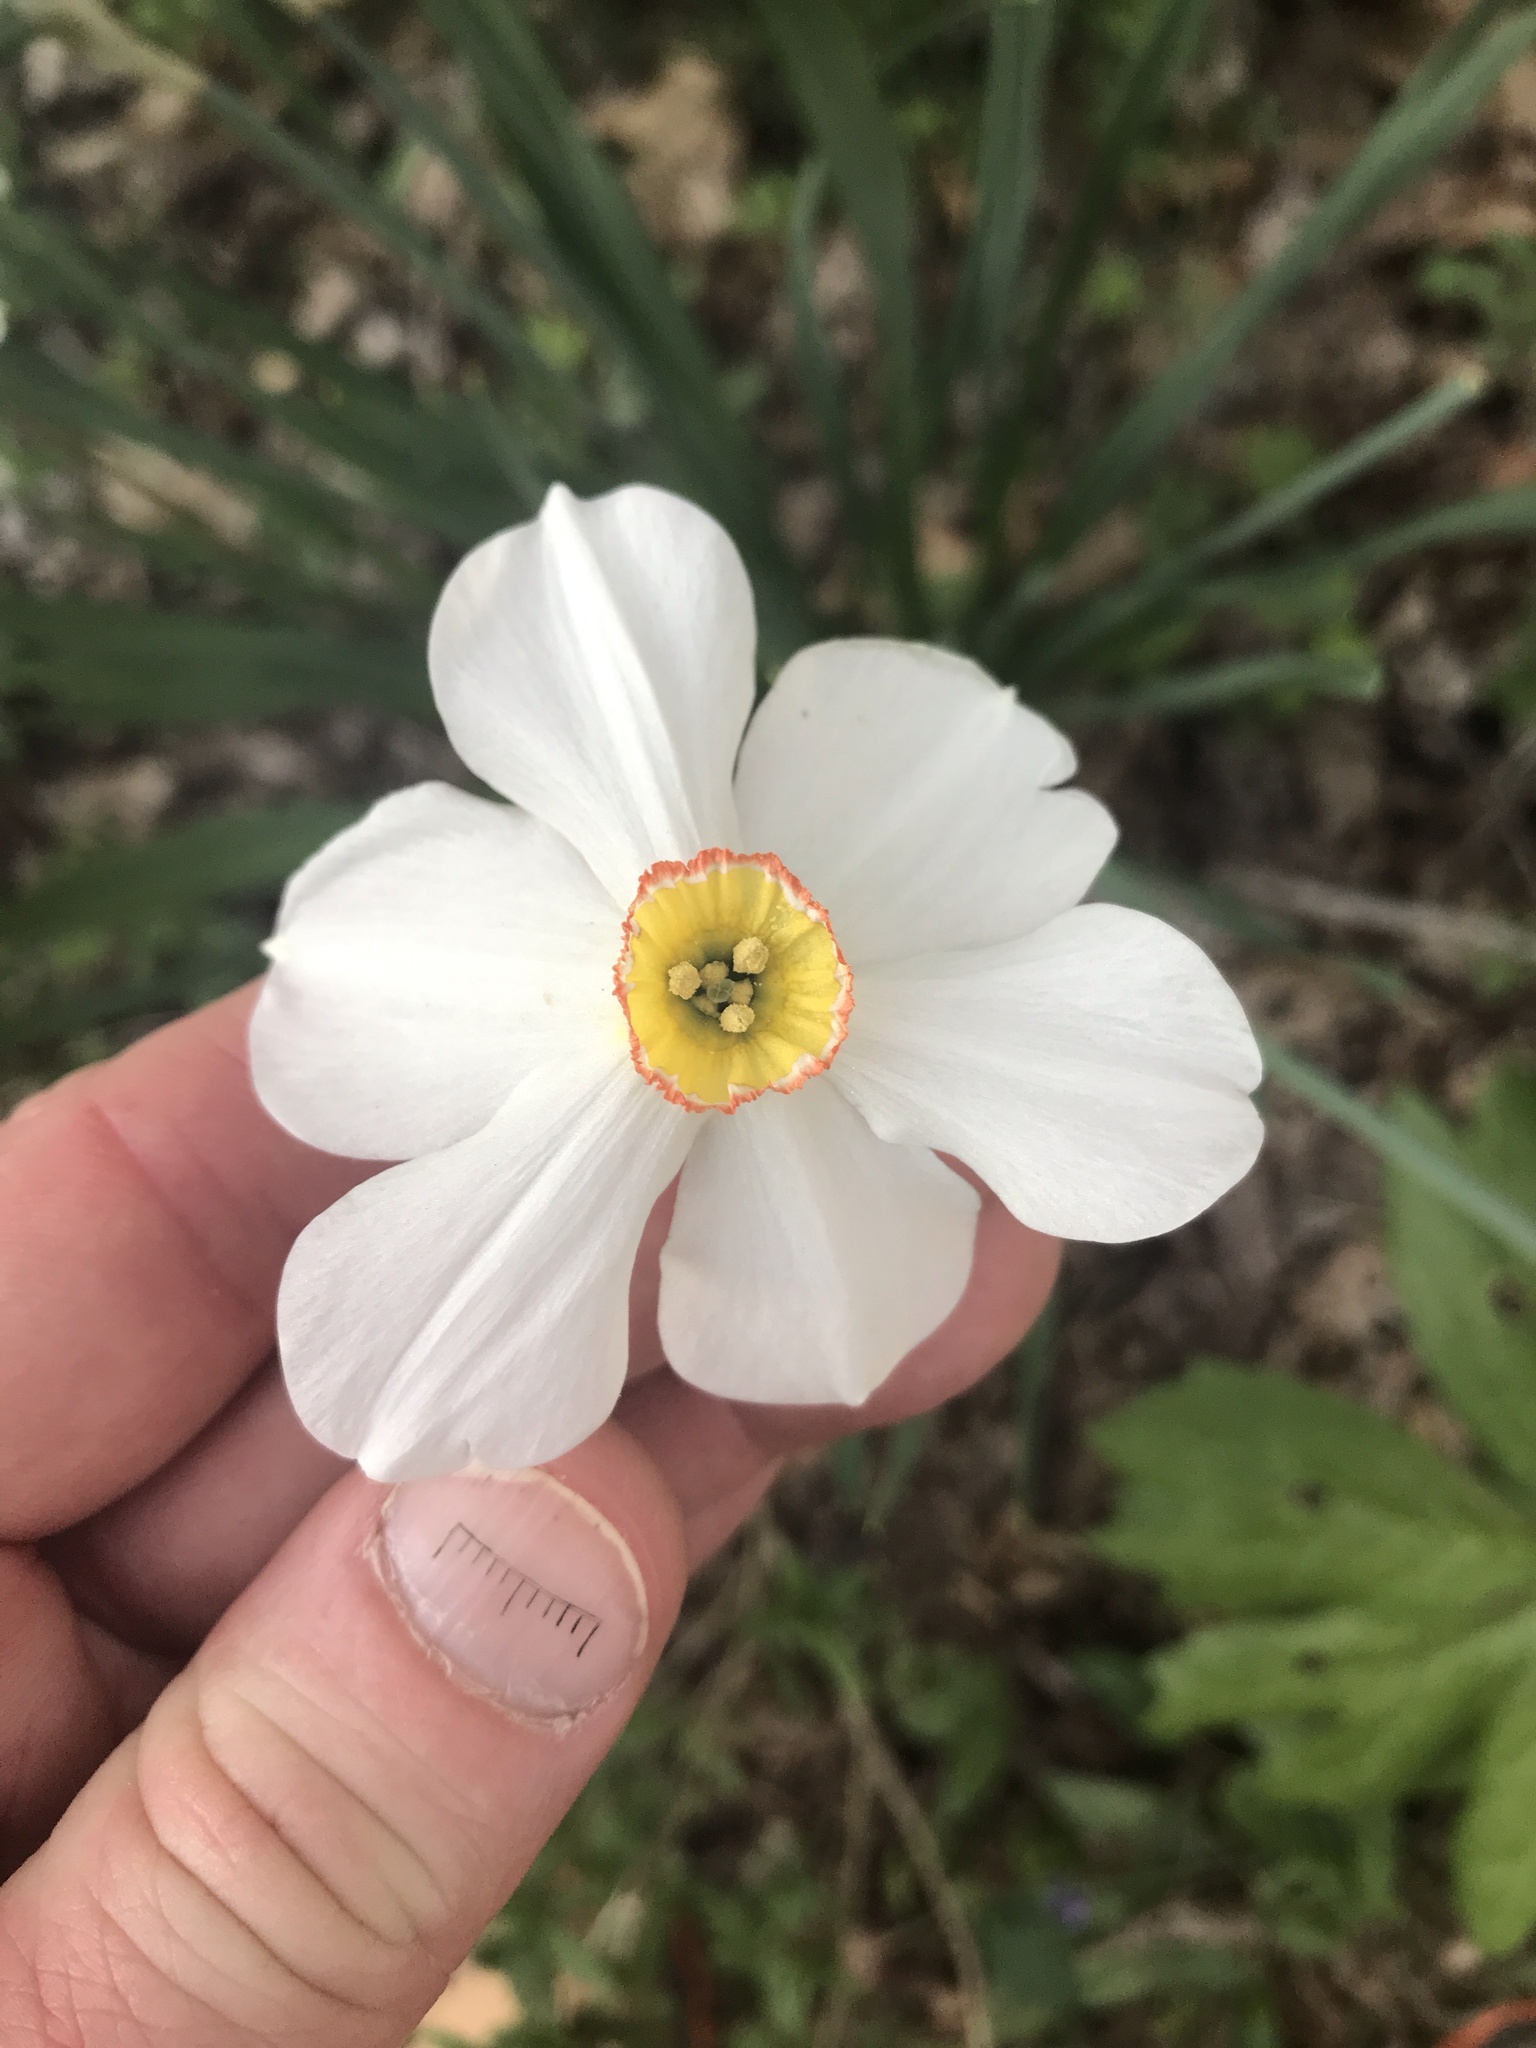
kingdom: Plantae
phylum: Tracheophyta
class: Liliopsida
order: Asparagales
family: Amaryllidaceae
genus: Narcissus
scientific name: Narcissus poeticus
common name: Pheasant's-eye daffodil
